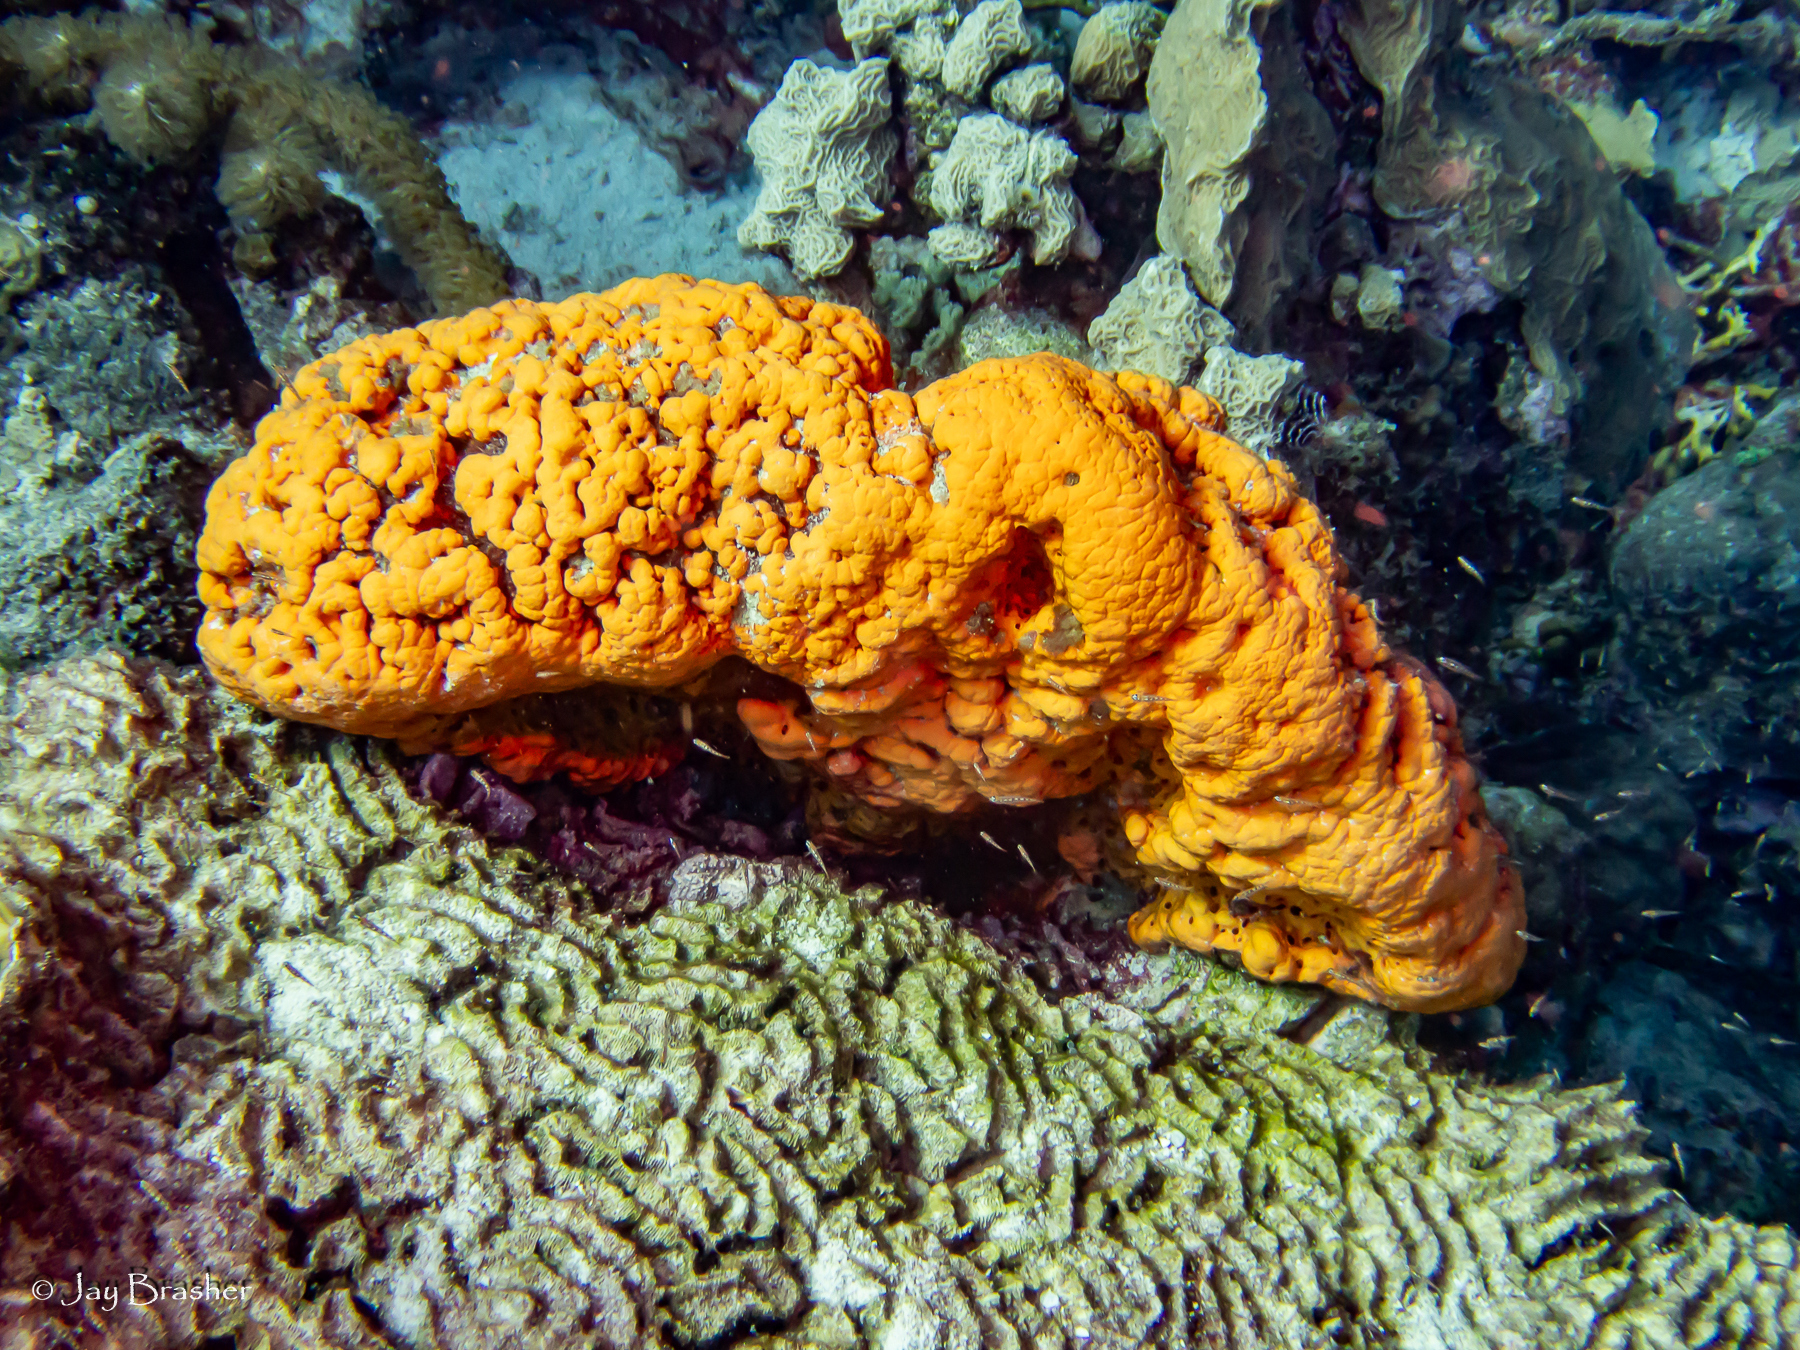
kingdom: Animalia
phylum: Cnidaria
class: Anthozoa
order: Scleractinia
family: Agariciidae
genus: Agaricia
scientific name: Agaricia agaricites
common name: Lettuce coral
